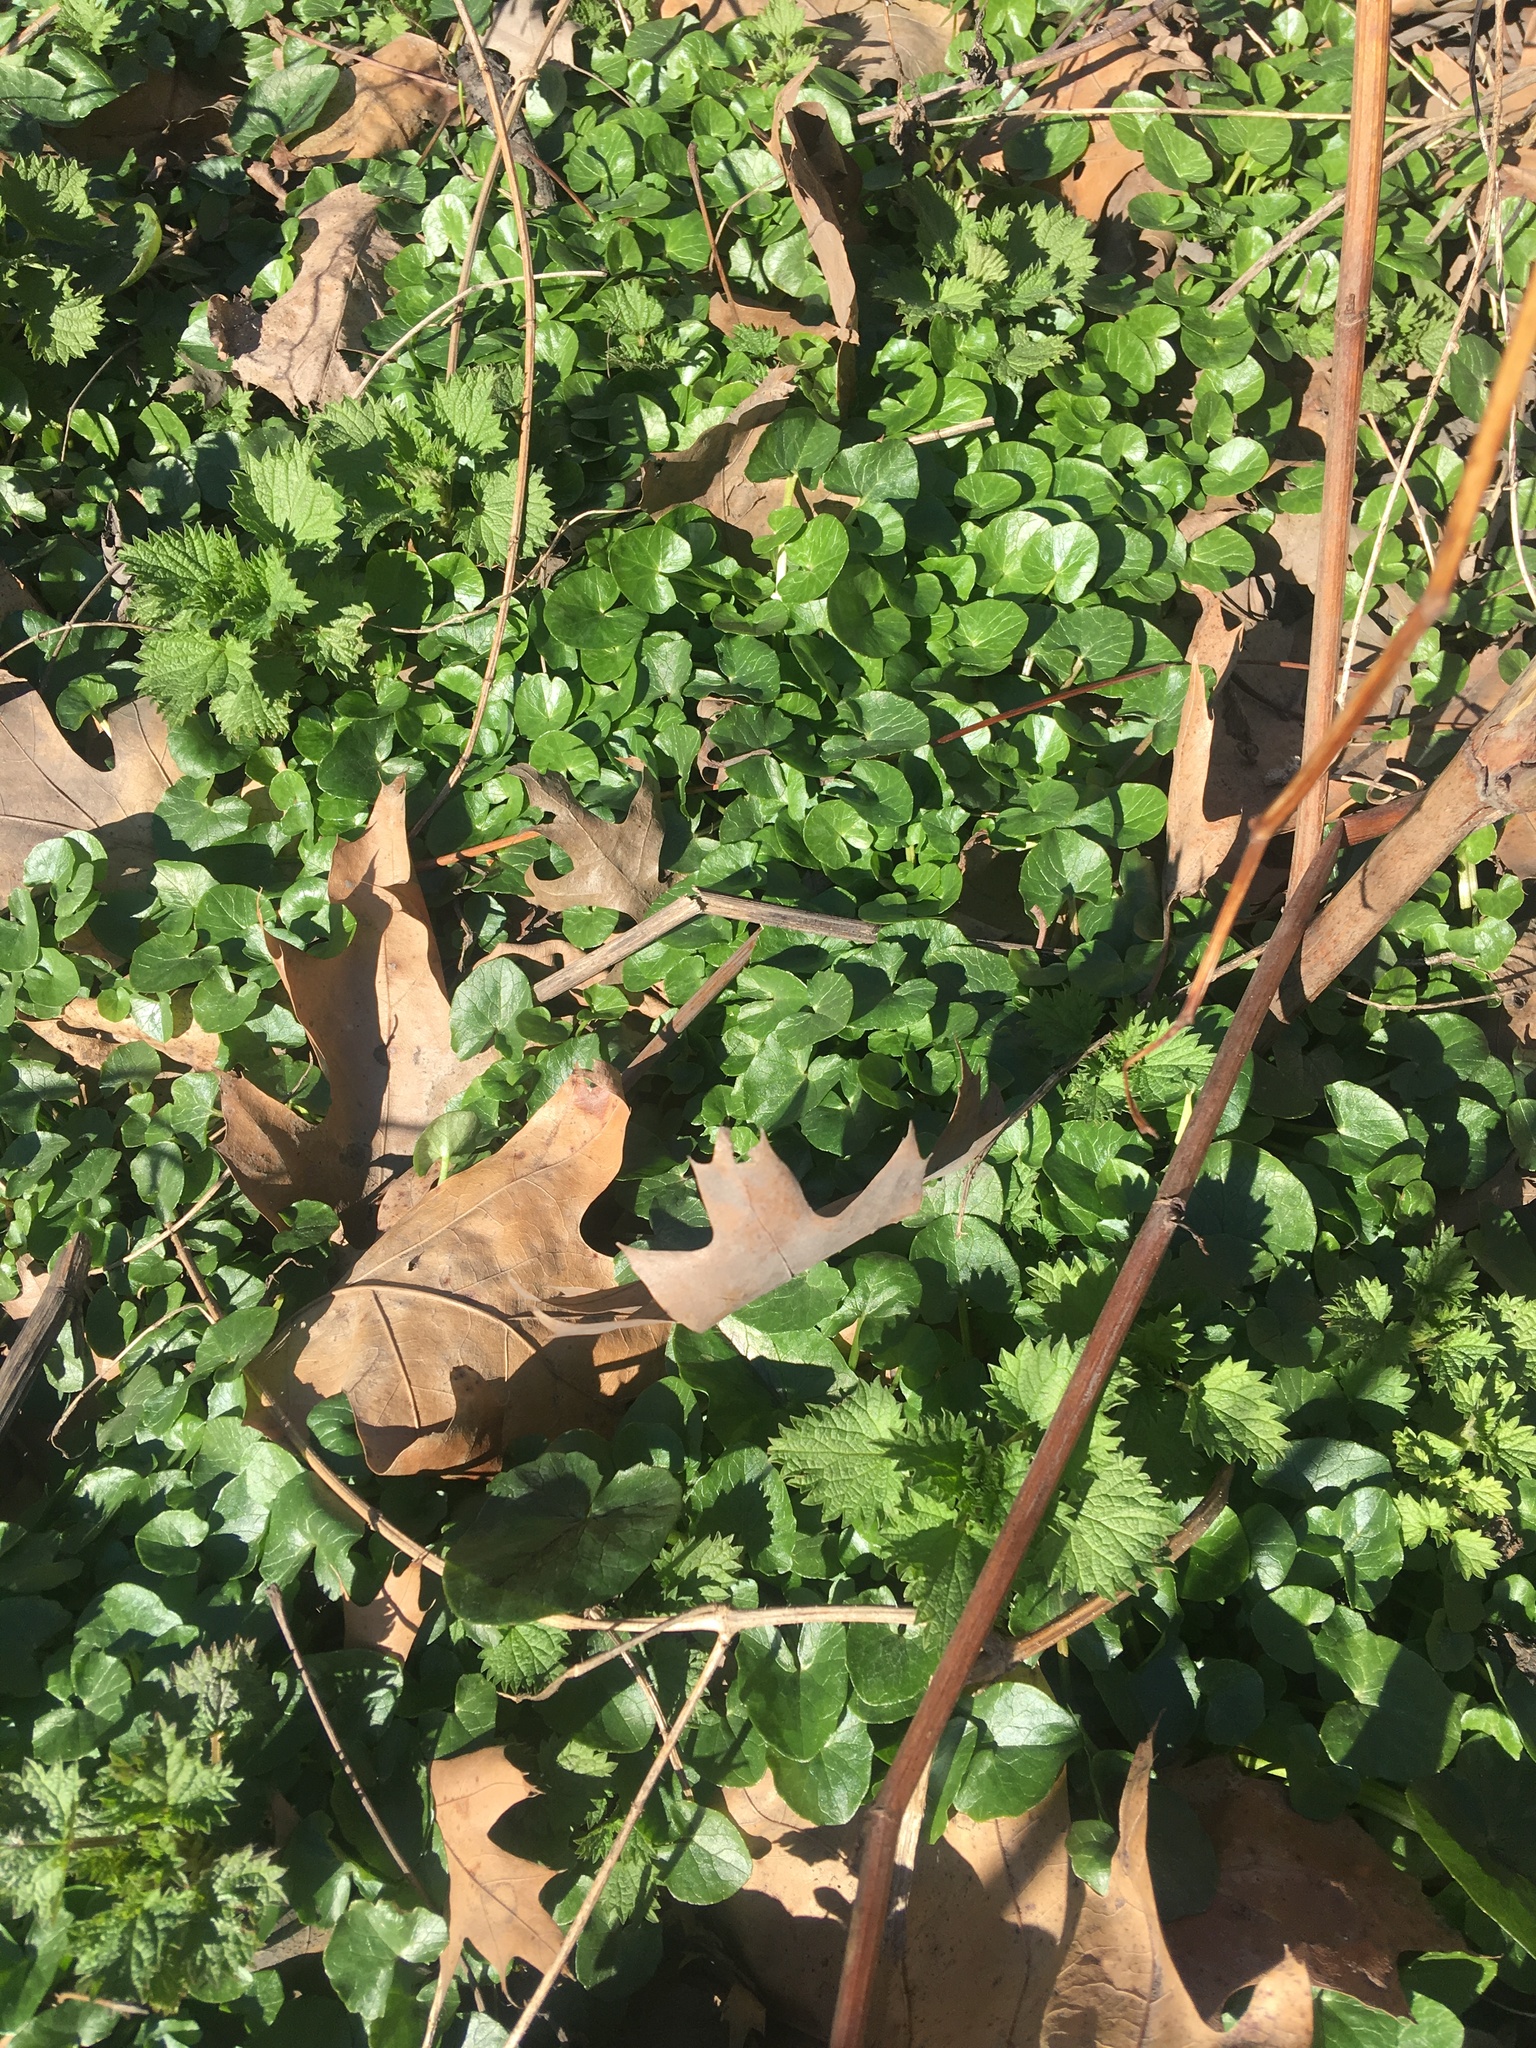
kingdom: Plantae
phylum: Tracheophyta
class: Magnoliopsida
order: Ranunculales
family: Ranunculaceae
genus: Ficaria
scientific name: Ficaria verna
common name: Lesser celandine
